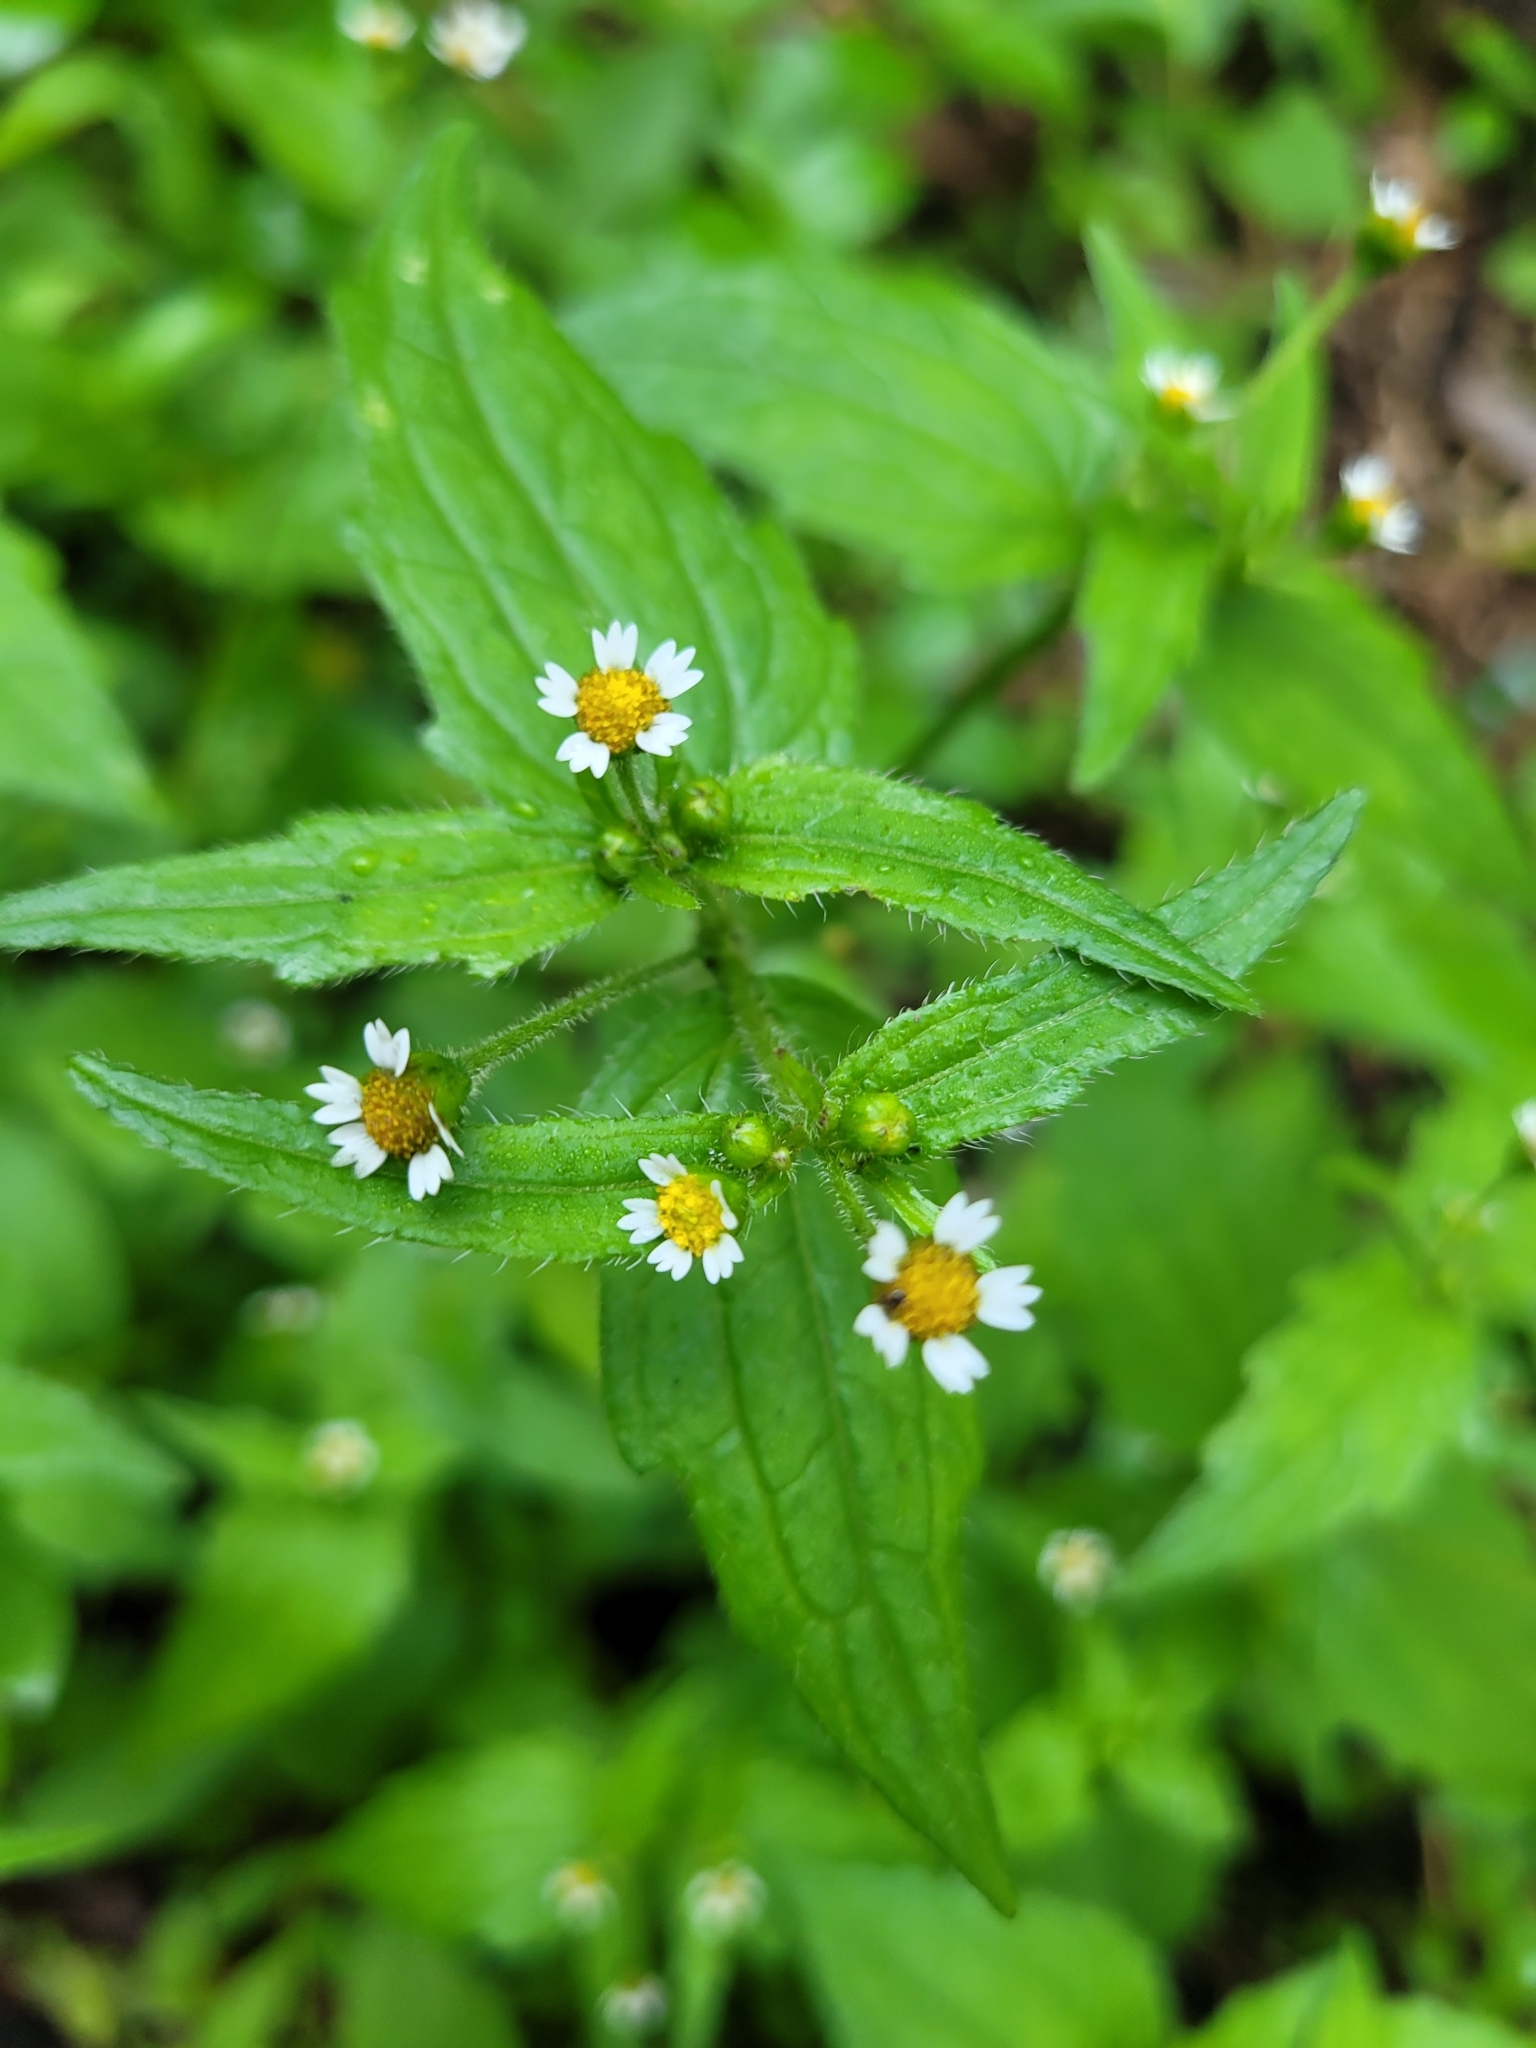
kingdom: Plantae
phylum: Tracheophyta
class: Magnoliopsida
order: Asterales
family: Asteraceae
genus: Galinsoga
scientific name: Galinsoga quadriradiata
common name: Shaggy soldier
